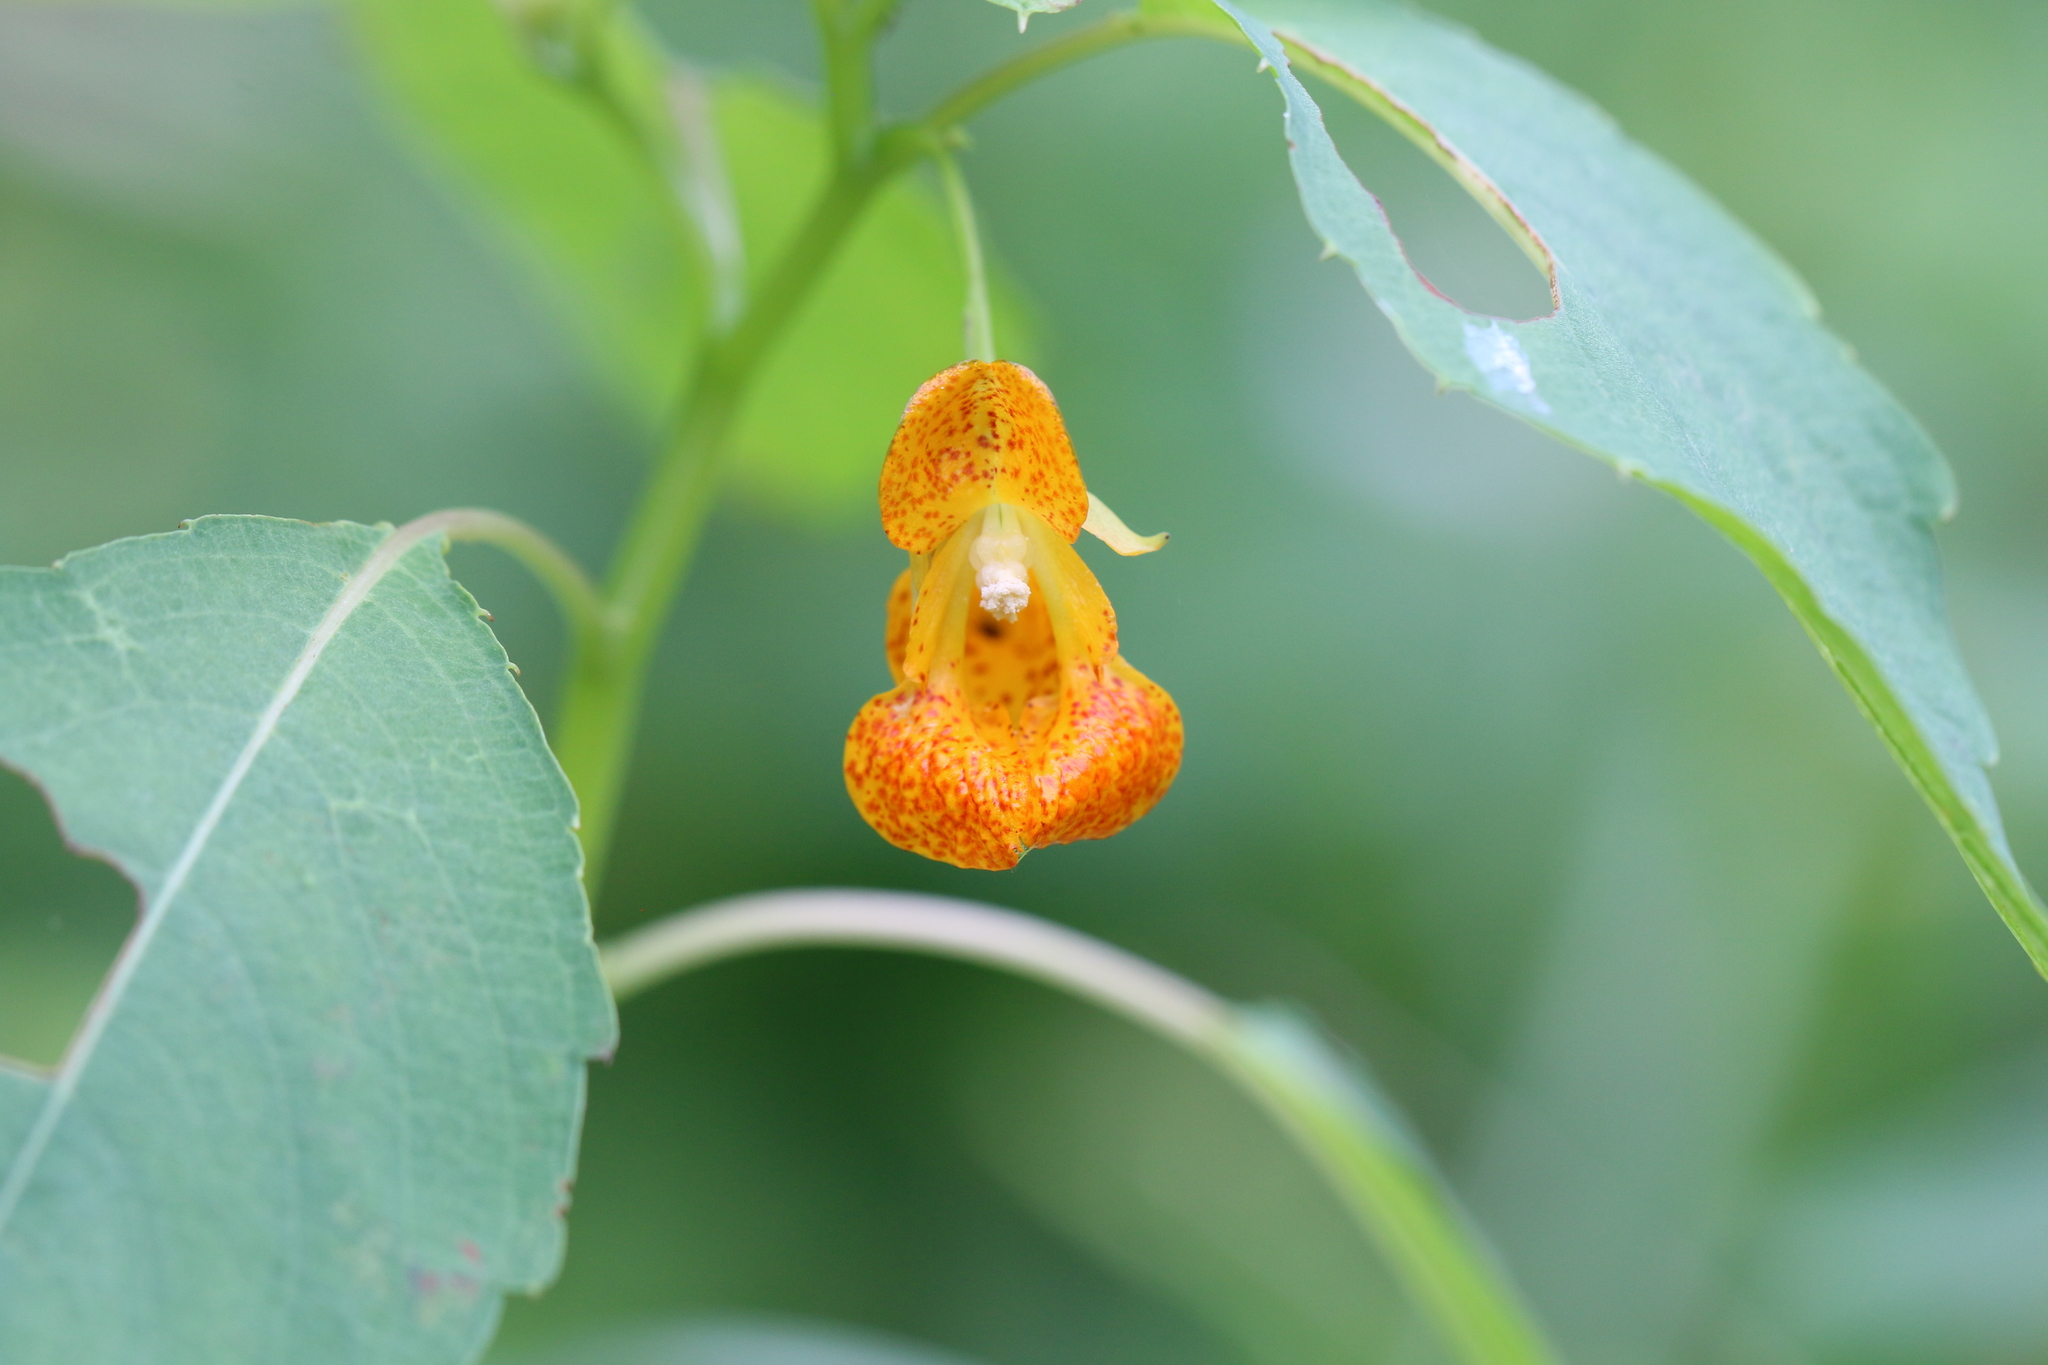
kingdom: Plantae
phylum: Tracheophyta
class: Magnoliopsida
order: Ericales
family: Balsaminaceae
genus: Impatiens
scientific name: Impatiens capensis
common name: Orange balsam
